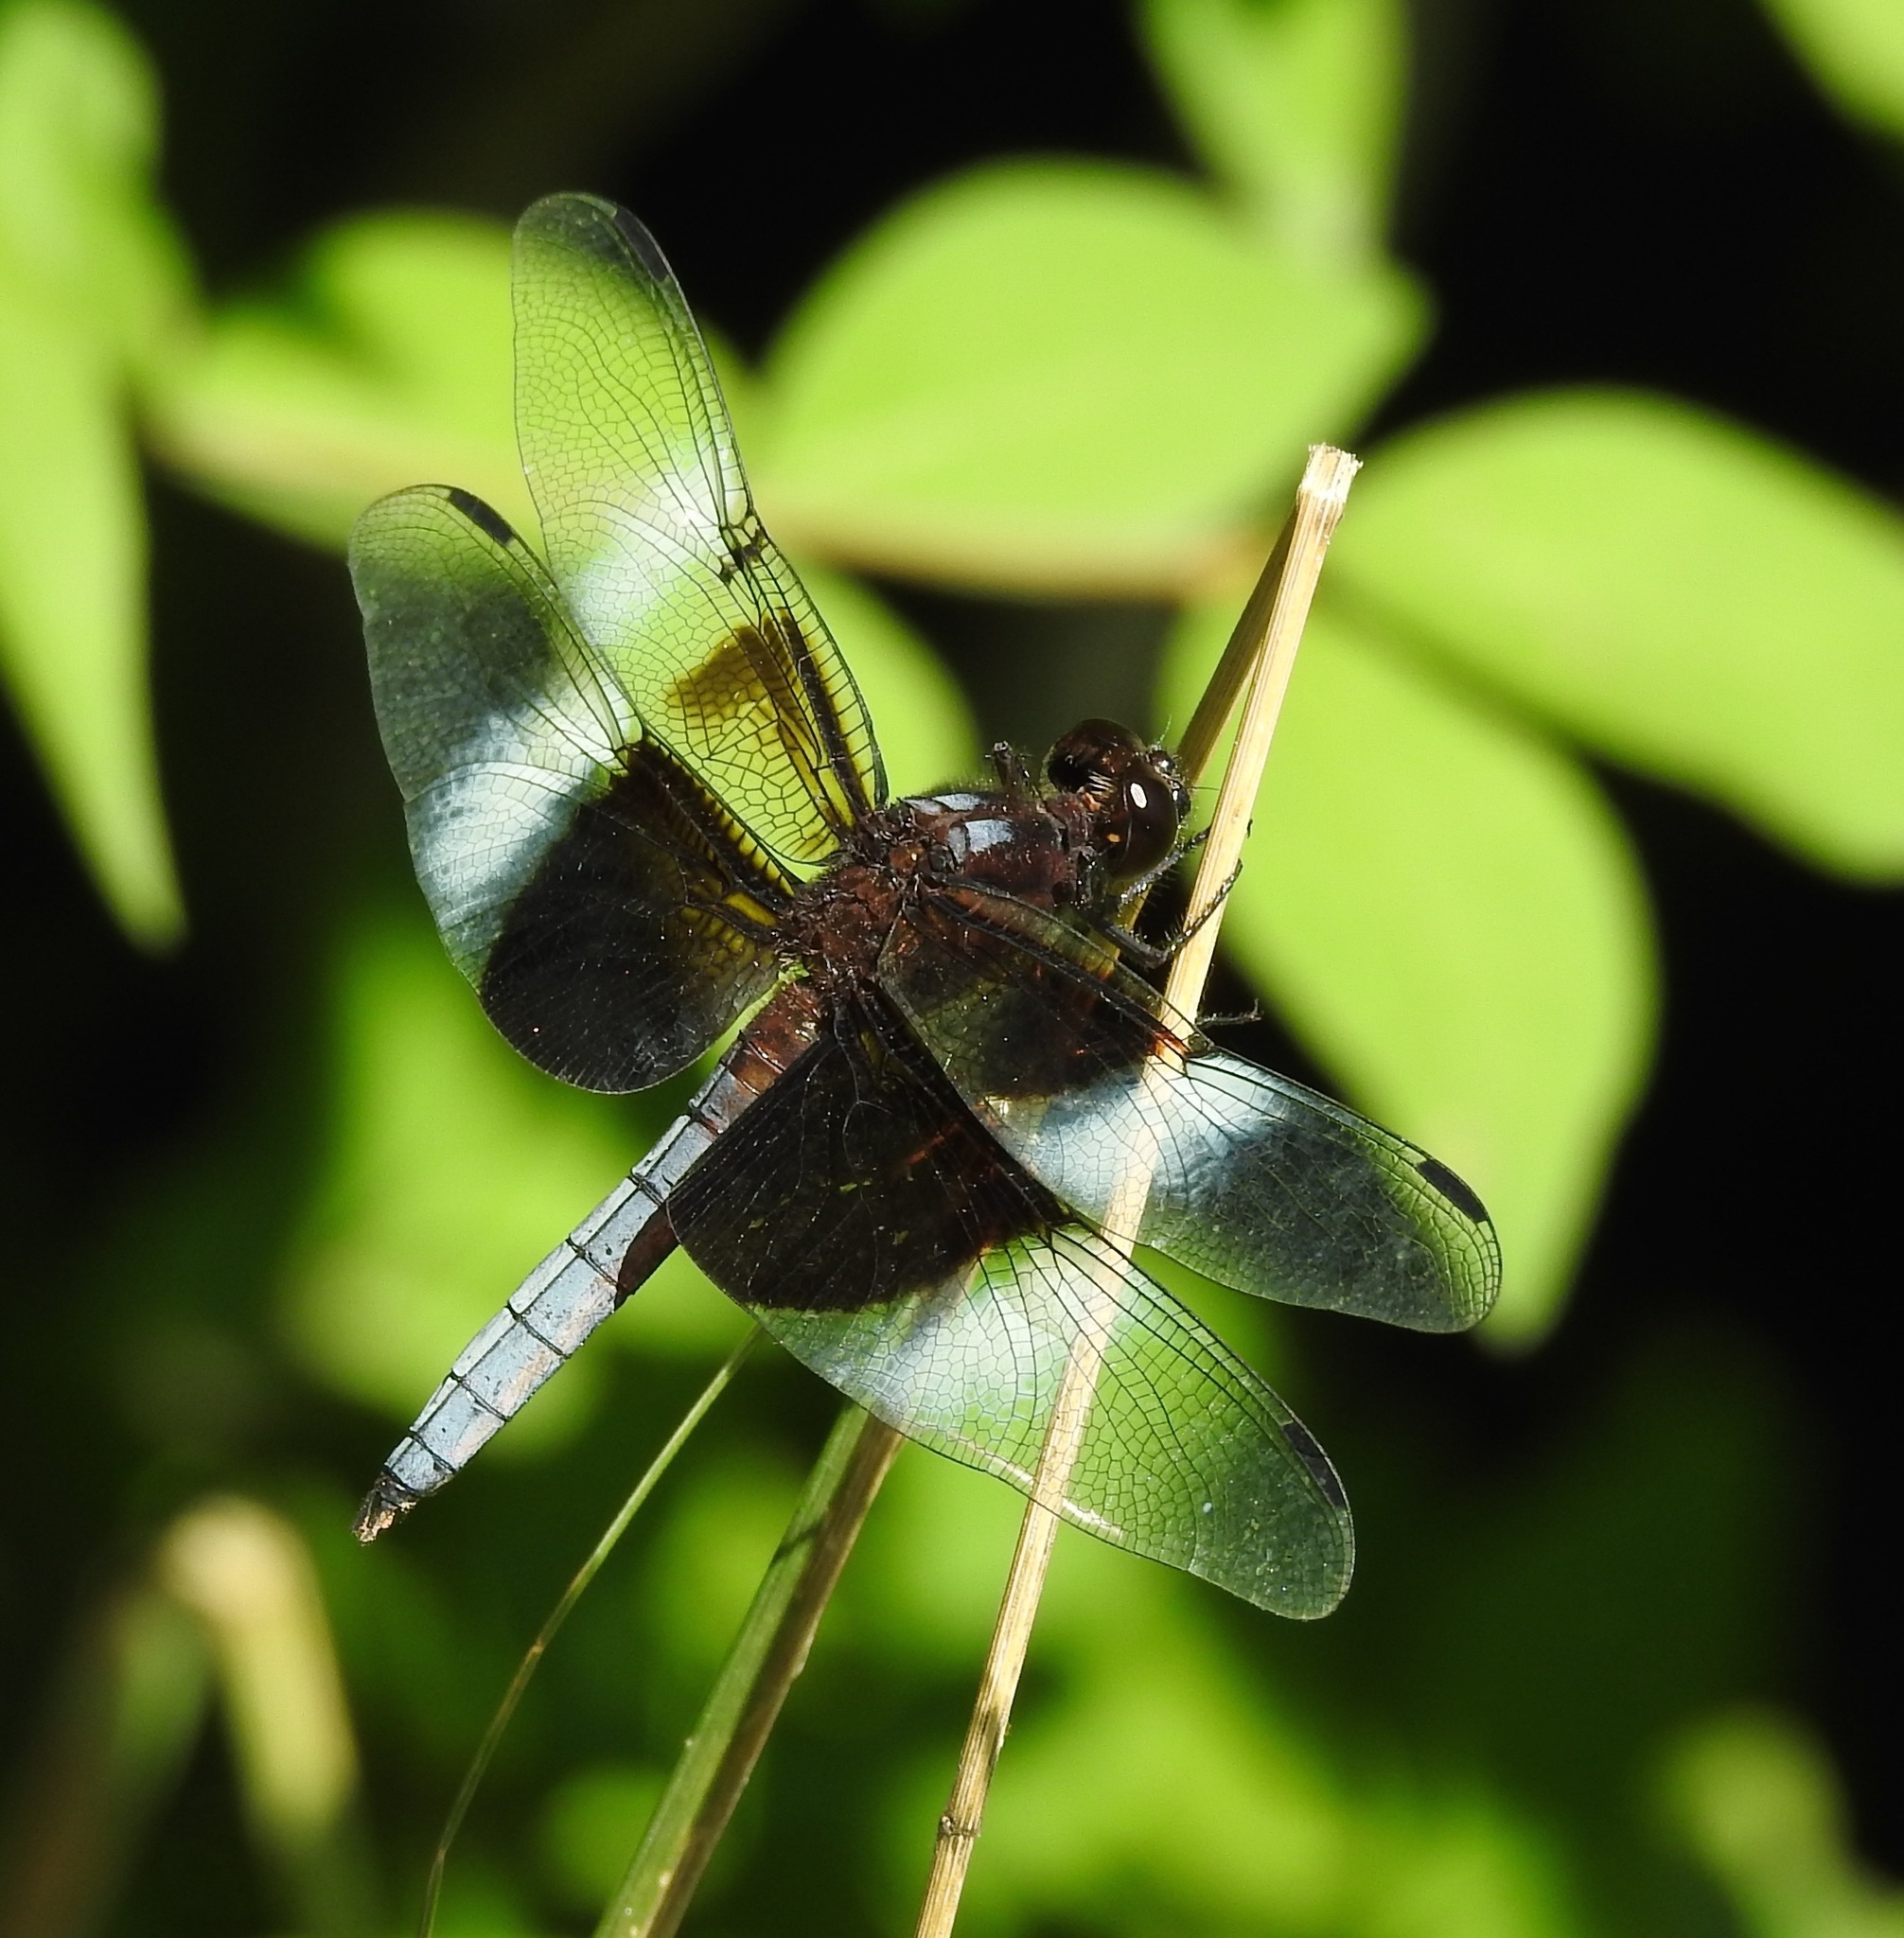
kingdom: Animalia
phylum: Arthropoda
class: Insecta
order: Odonata
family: Libellulidae
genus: Libellula
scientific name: Libellula luctuosa
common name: Widow skimmer
